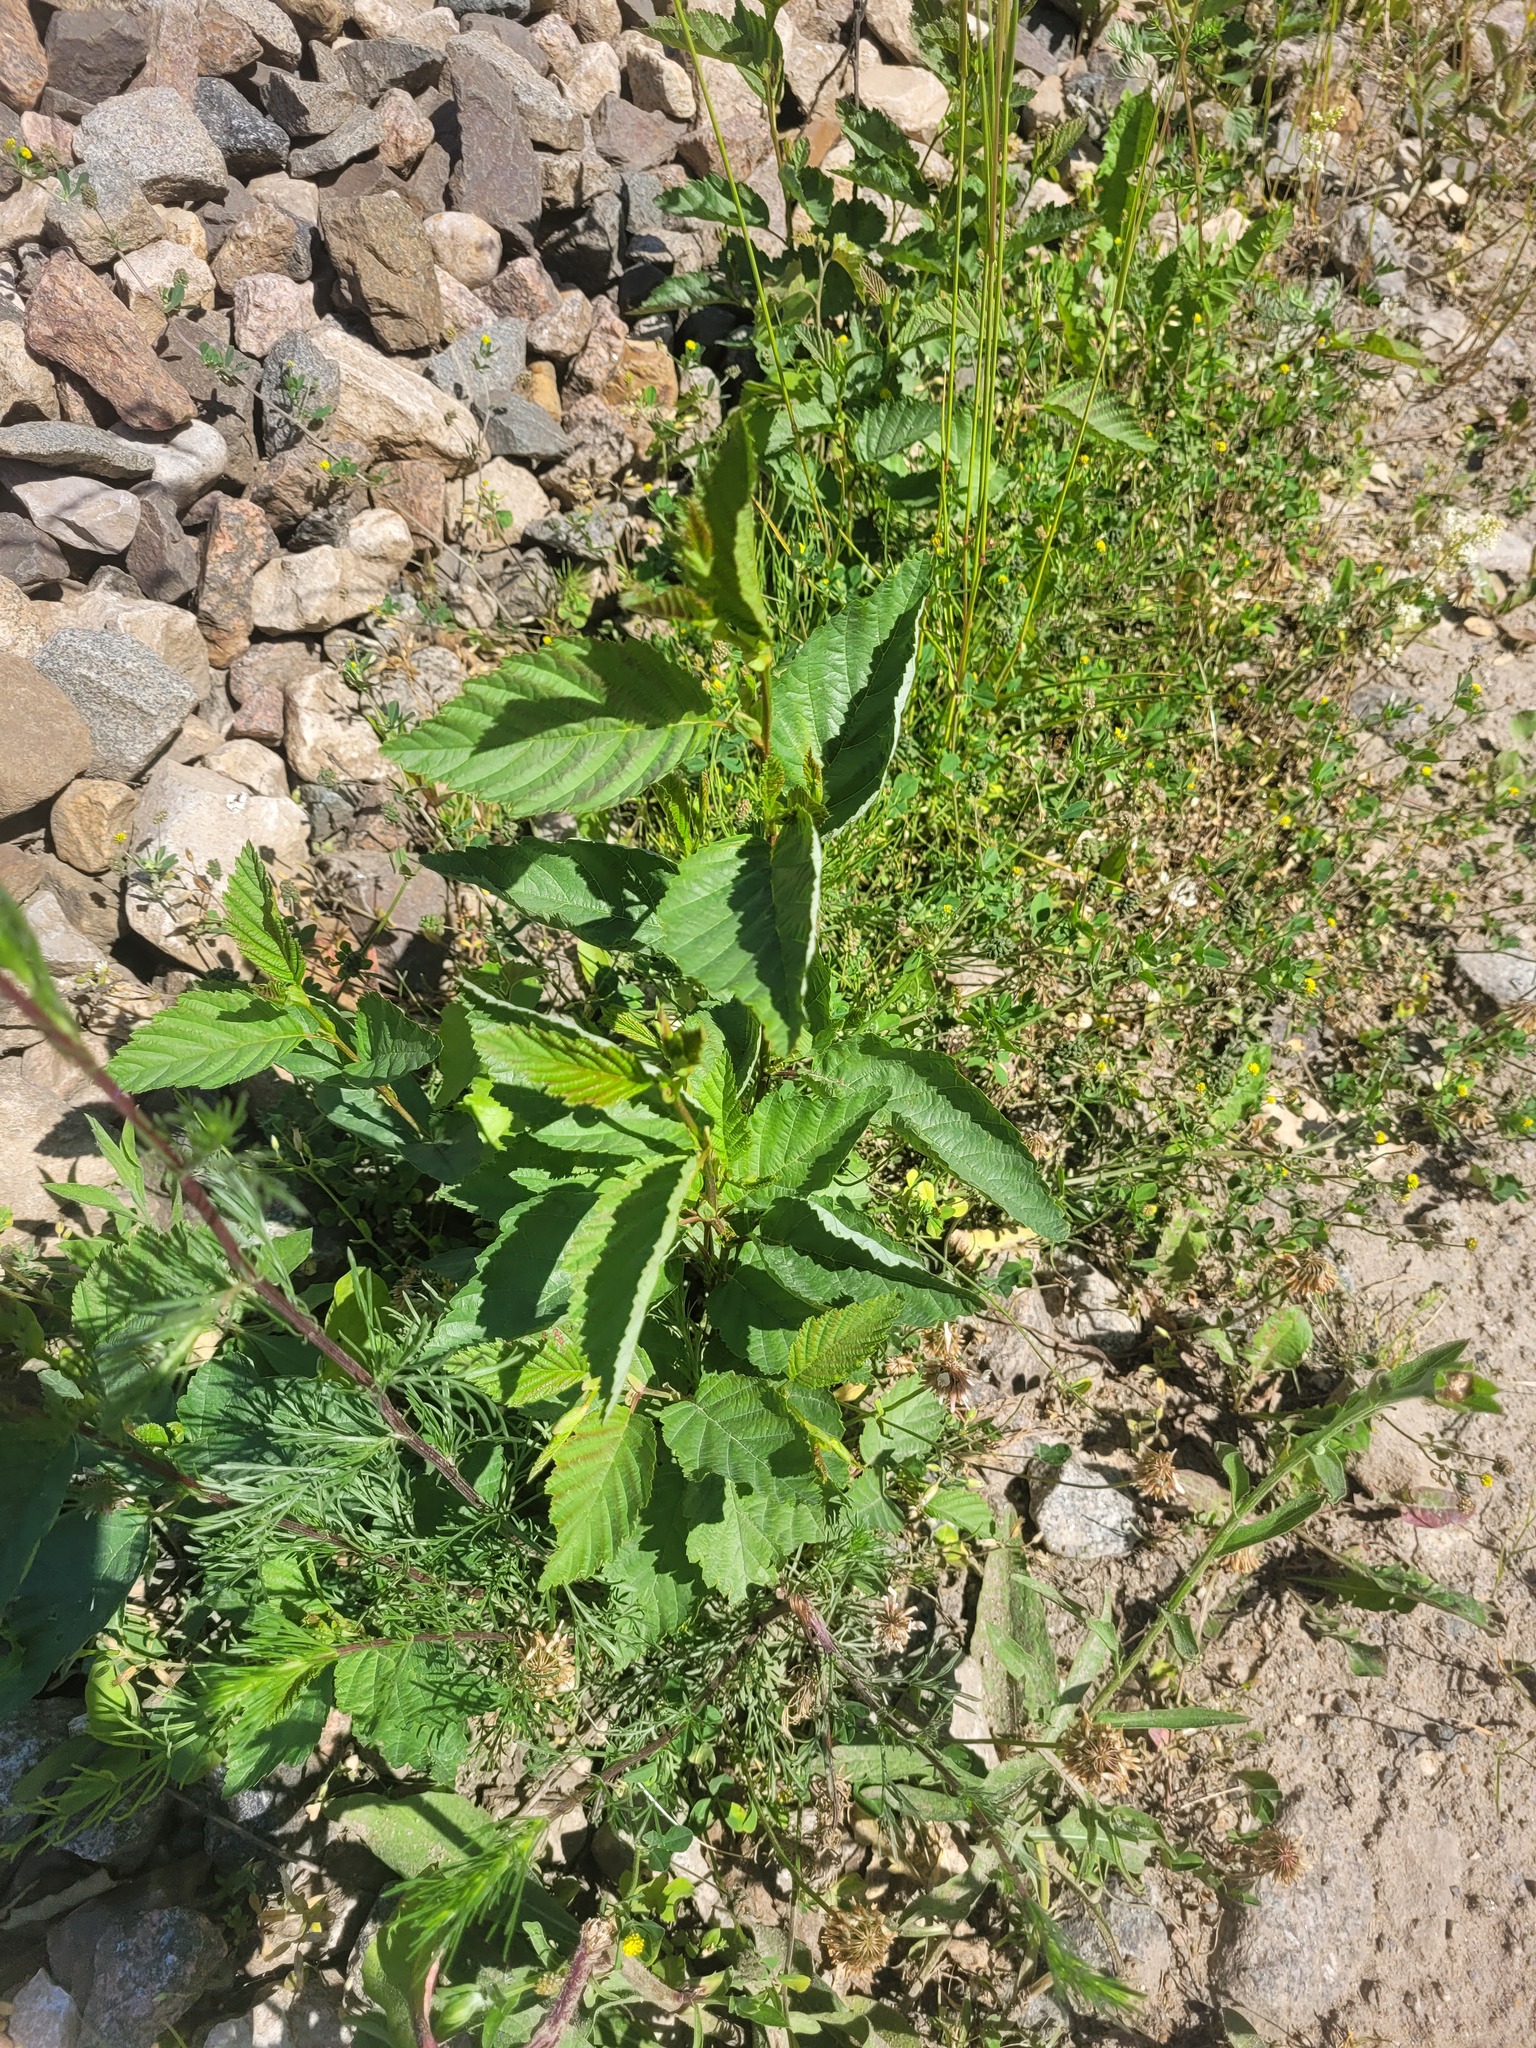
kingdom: Plantae
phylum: Tracheophyta
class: Magnoliopsida
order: Fagales
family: Betulaceae
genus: Alnus
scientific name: Alnus incana
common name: Grey alder
